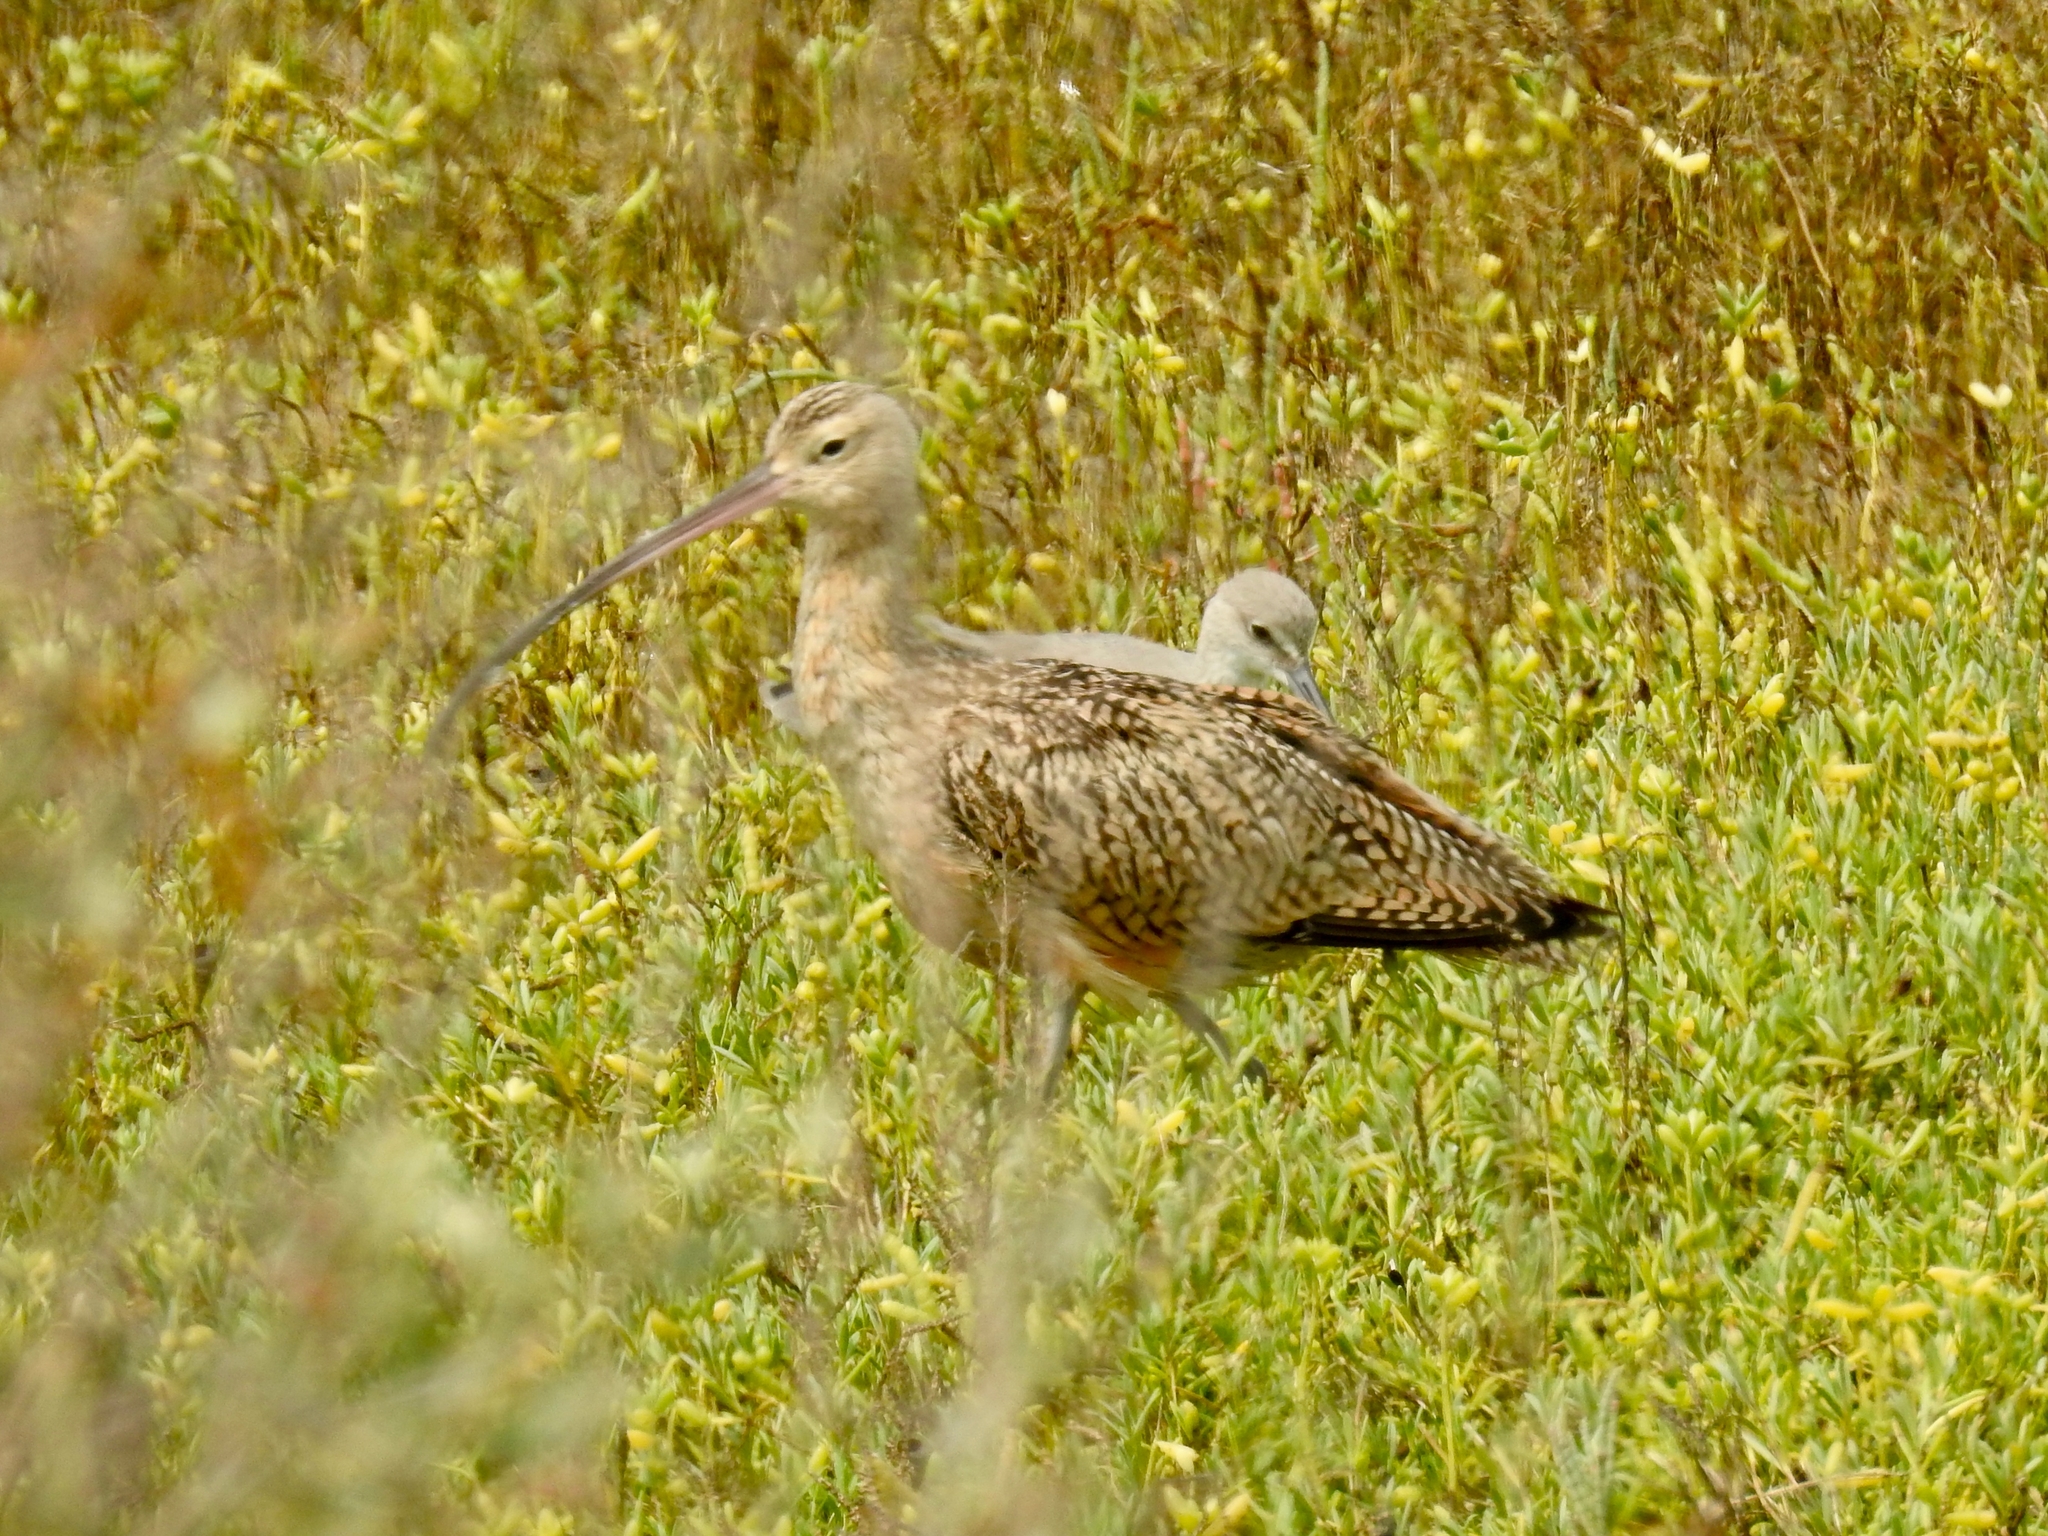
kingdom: Animalia
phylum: Chordata
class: Aves
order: Charadriiformes
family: Scolopacidae
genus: Numenius
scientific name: Numenius americanus
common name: Long-billed curlew
